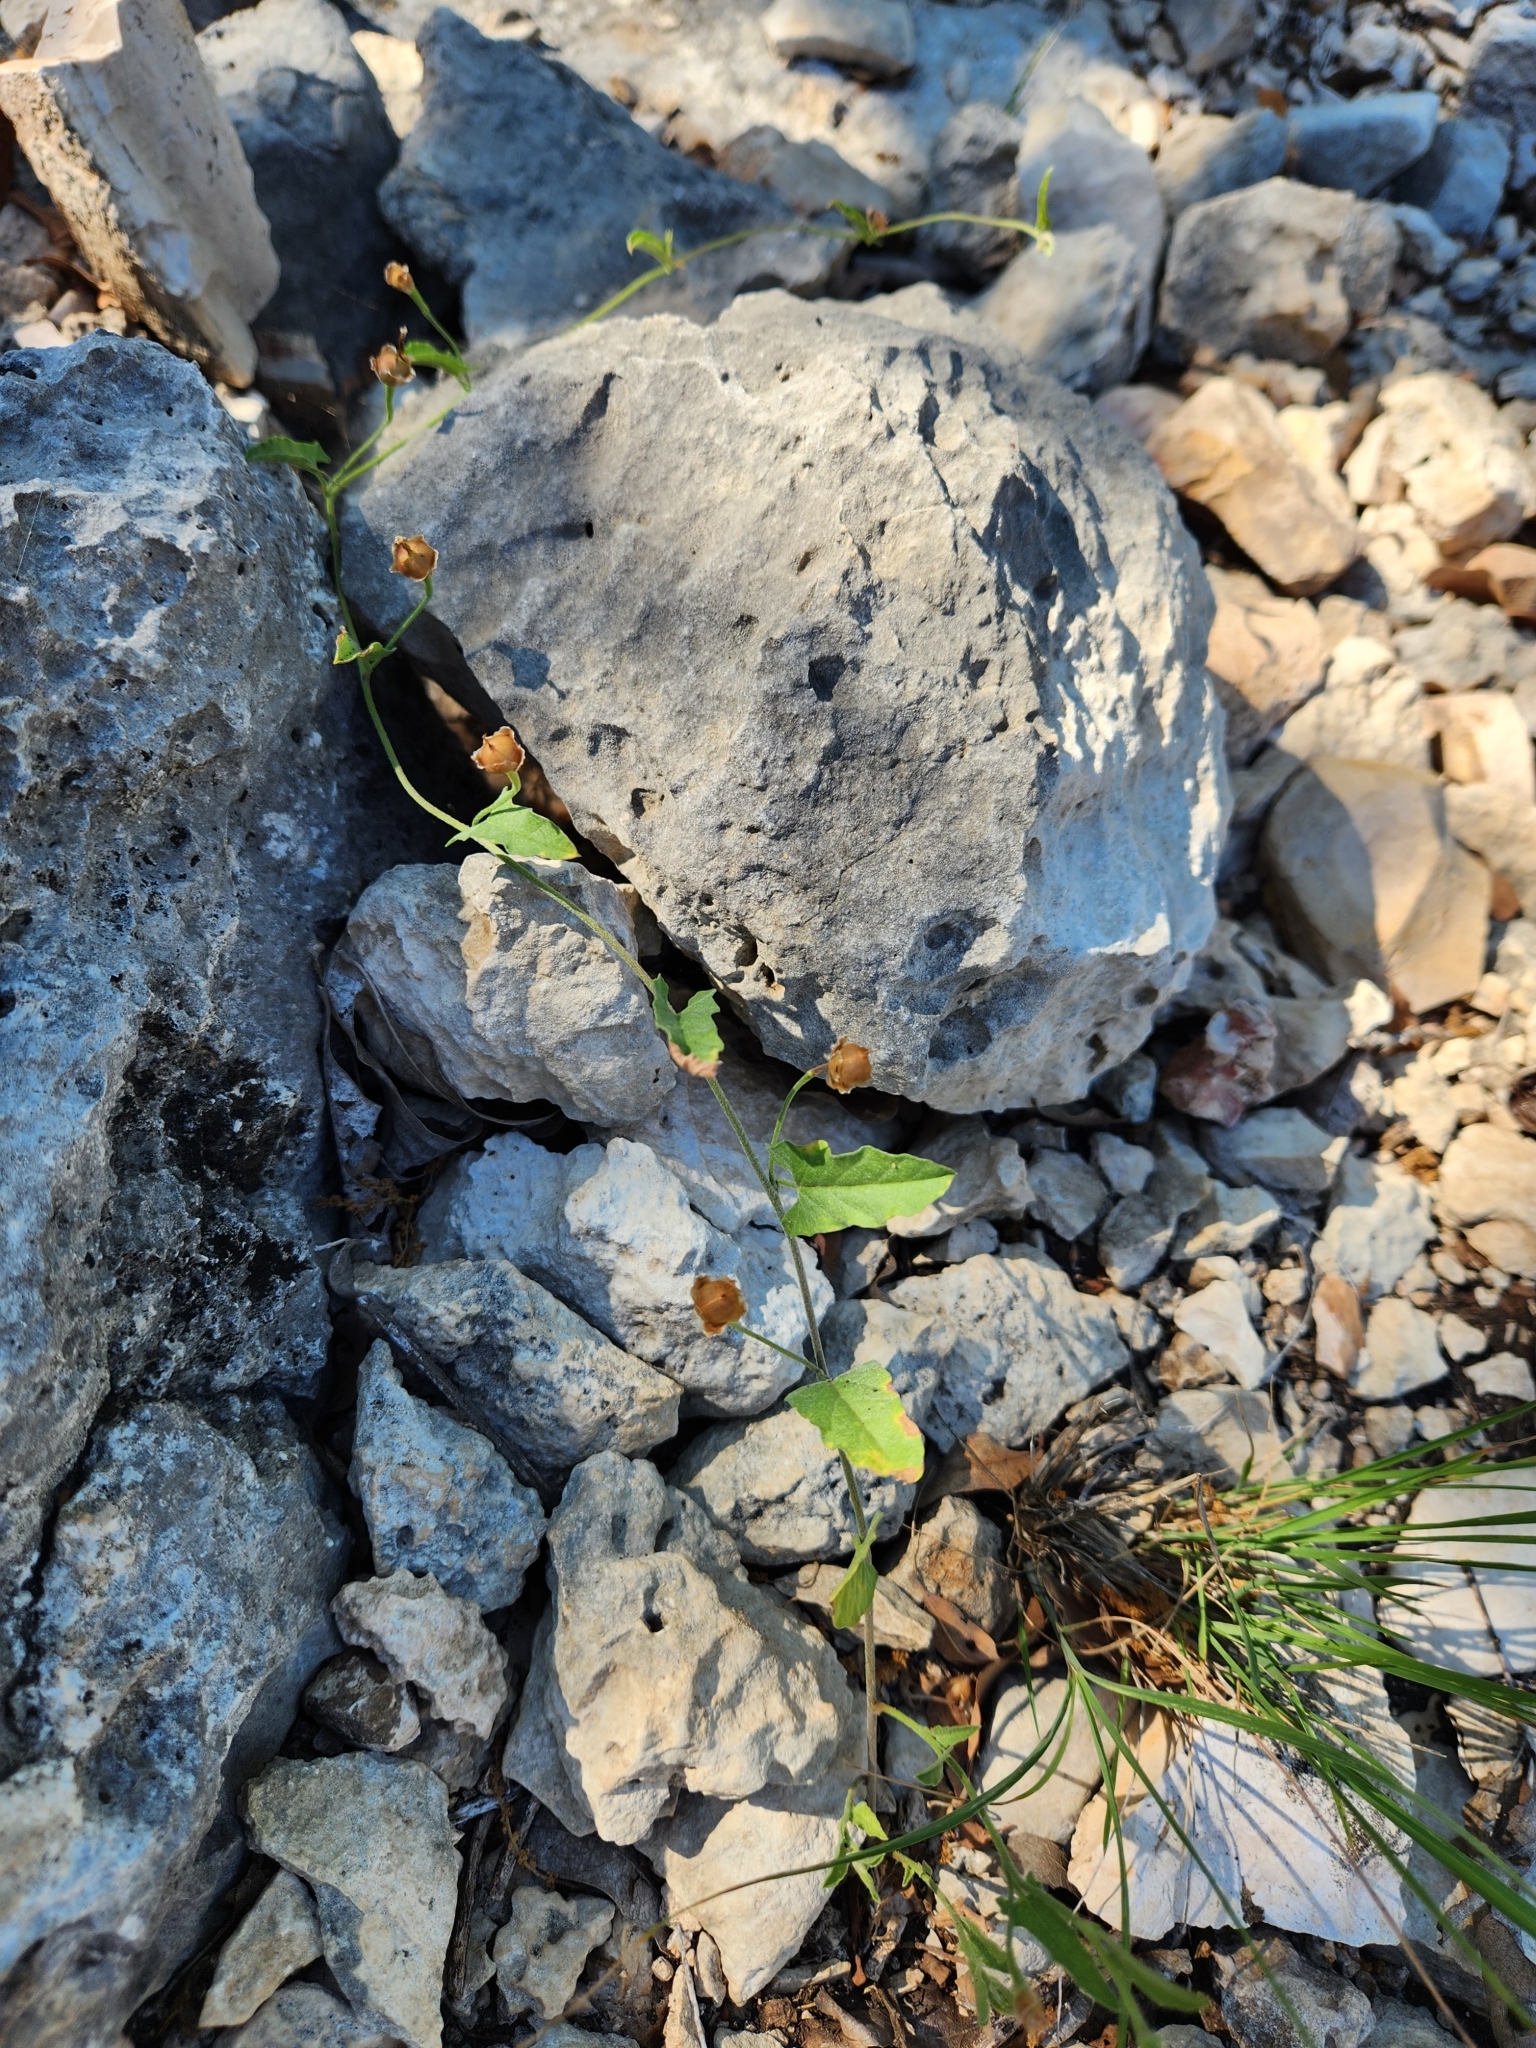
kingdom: Plantae
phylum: Tracheophyta
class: Magnoliopsida
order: Solanales
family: Convolvulaceae
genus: Convolvulus
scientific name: Convolvulus equitans
